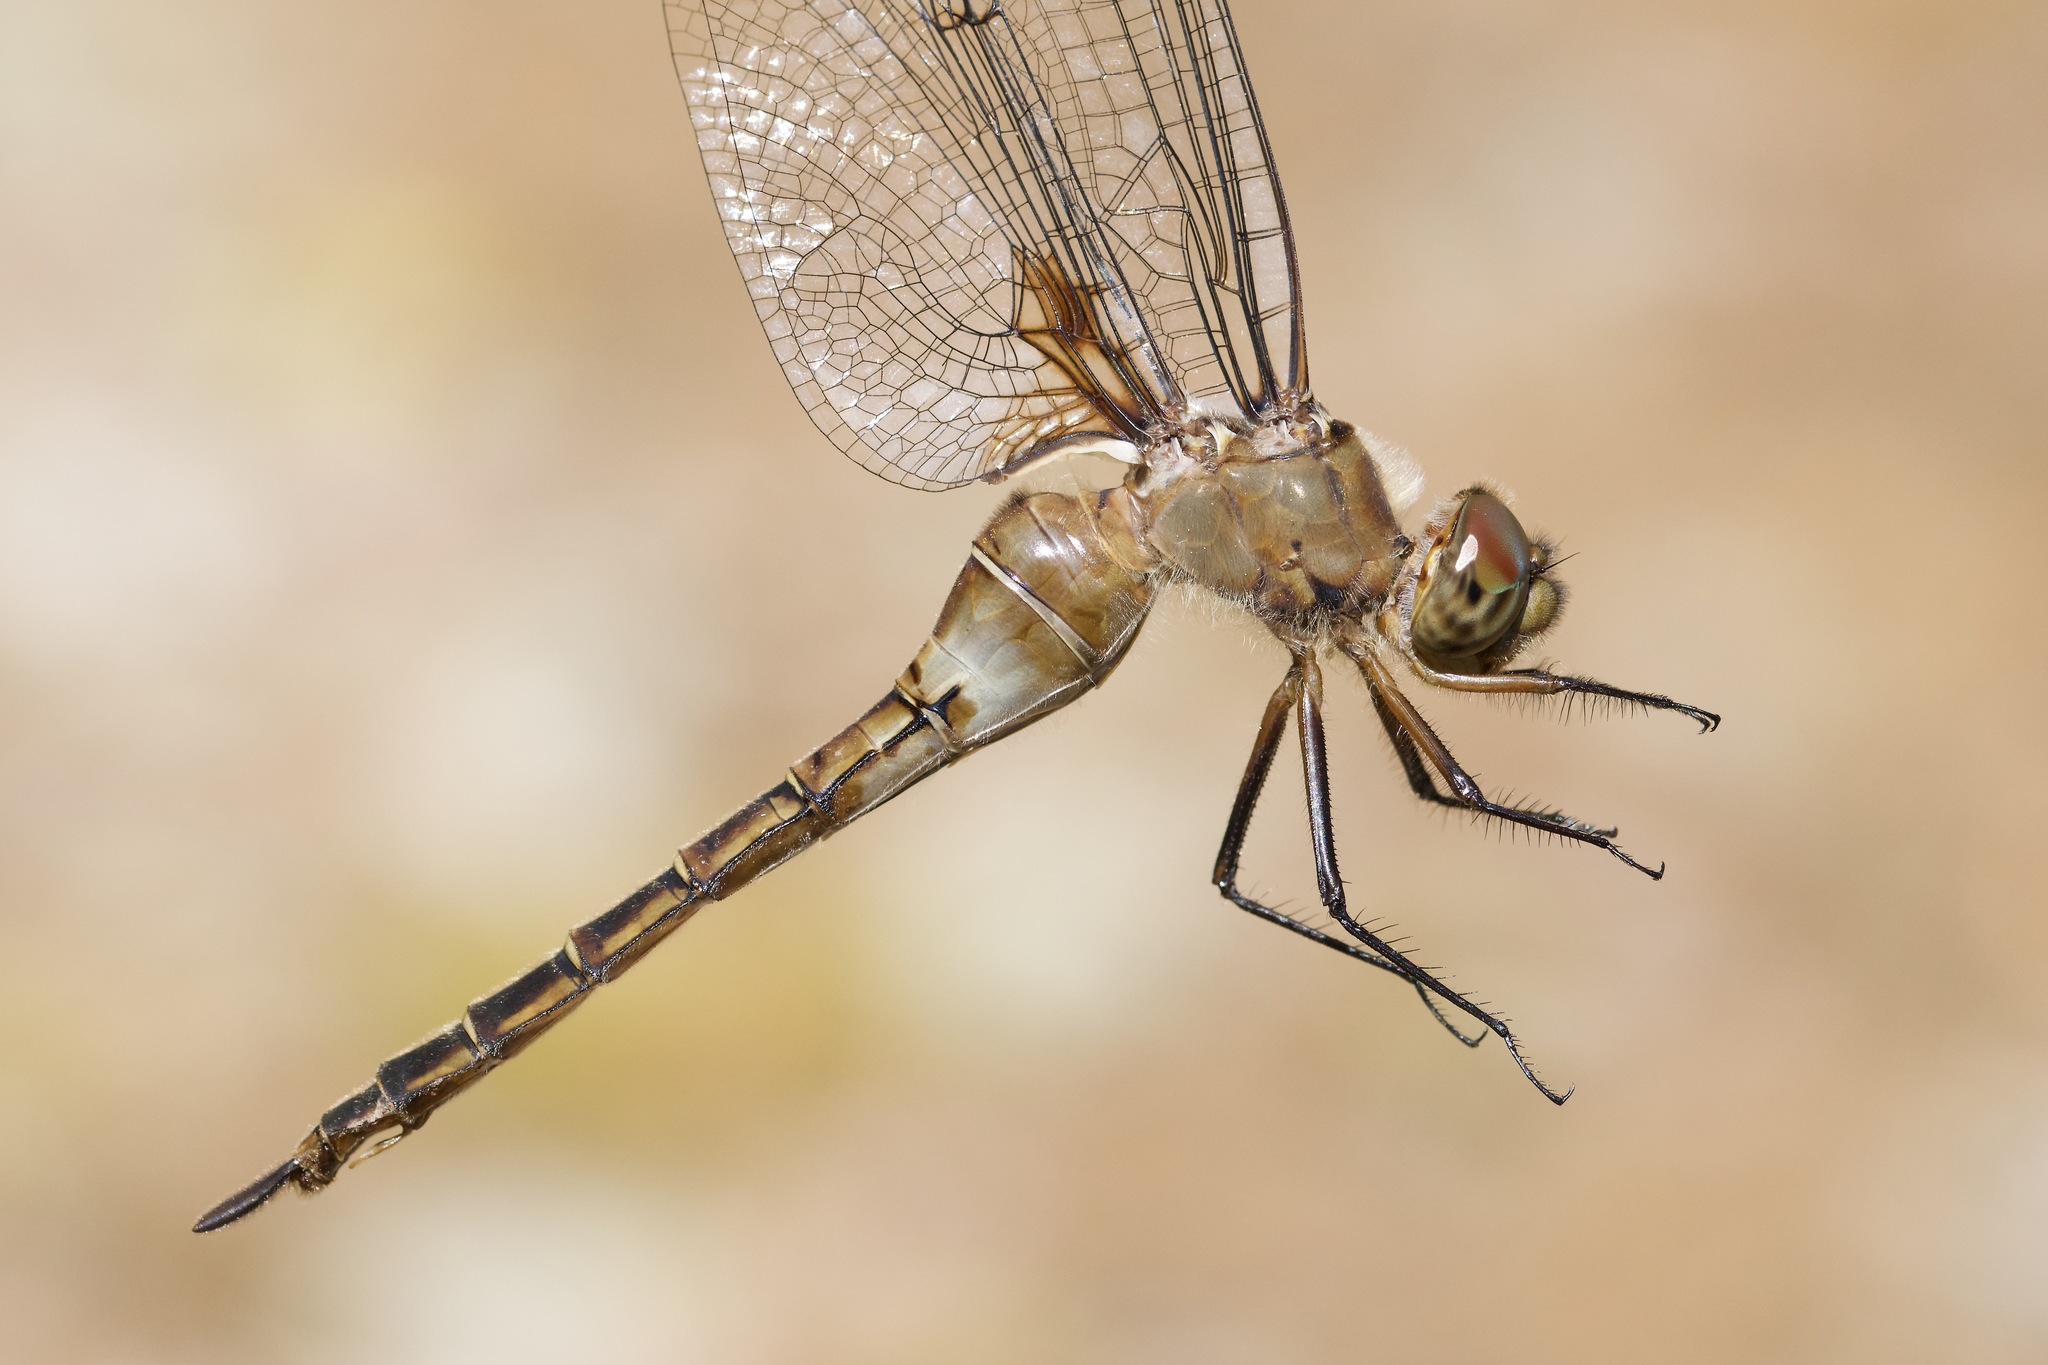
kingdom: Animalia
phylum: Arthropoda
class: Insecta
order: Odonata
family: Corduliidae
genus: Epitheca
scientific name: Epitheca princeps
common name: Prince baskettail
